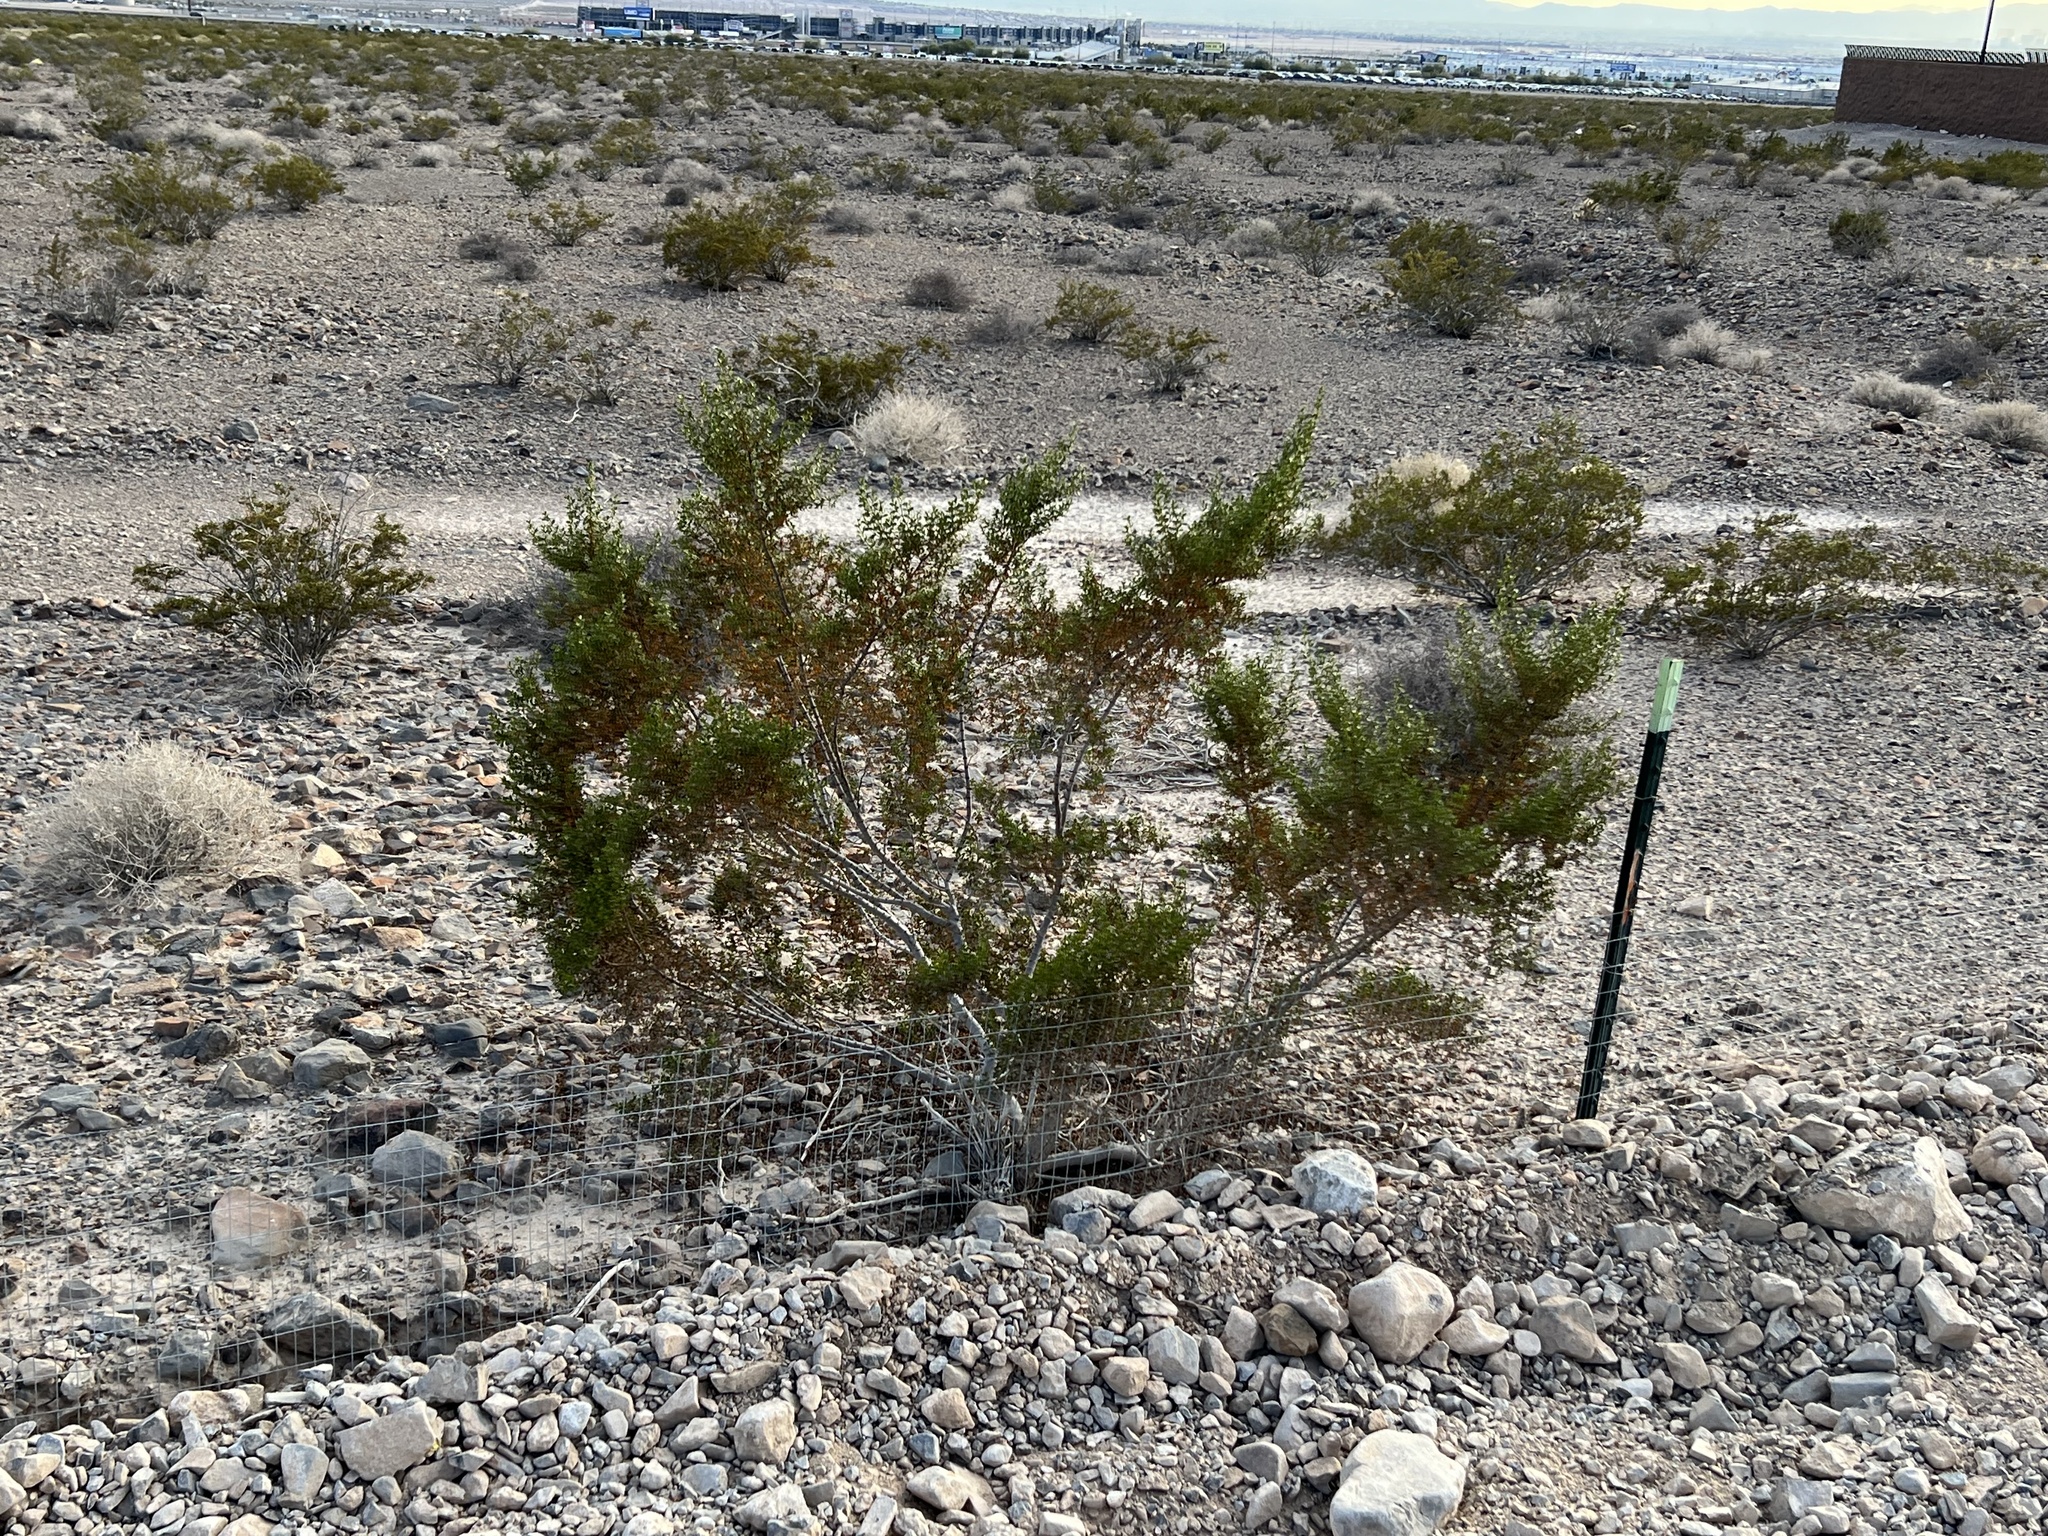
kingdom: Plantae
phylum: Tracheophyta
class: Magnoliopsida
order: Zygophyllales
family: Zygophyllaceae
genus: Larrea
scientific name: Larrea tridentata
